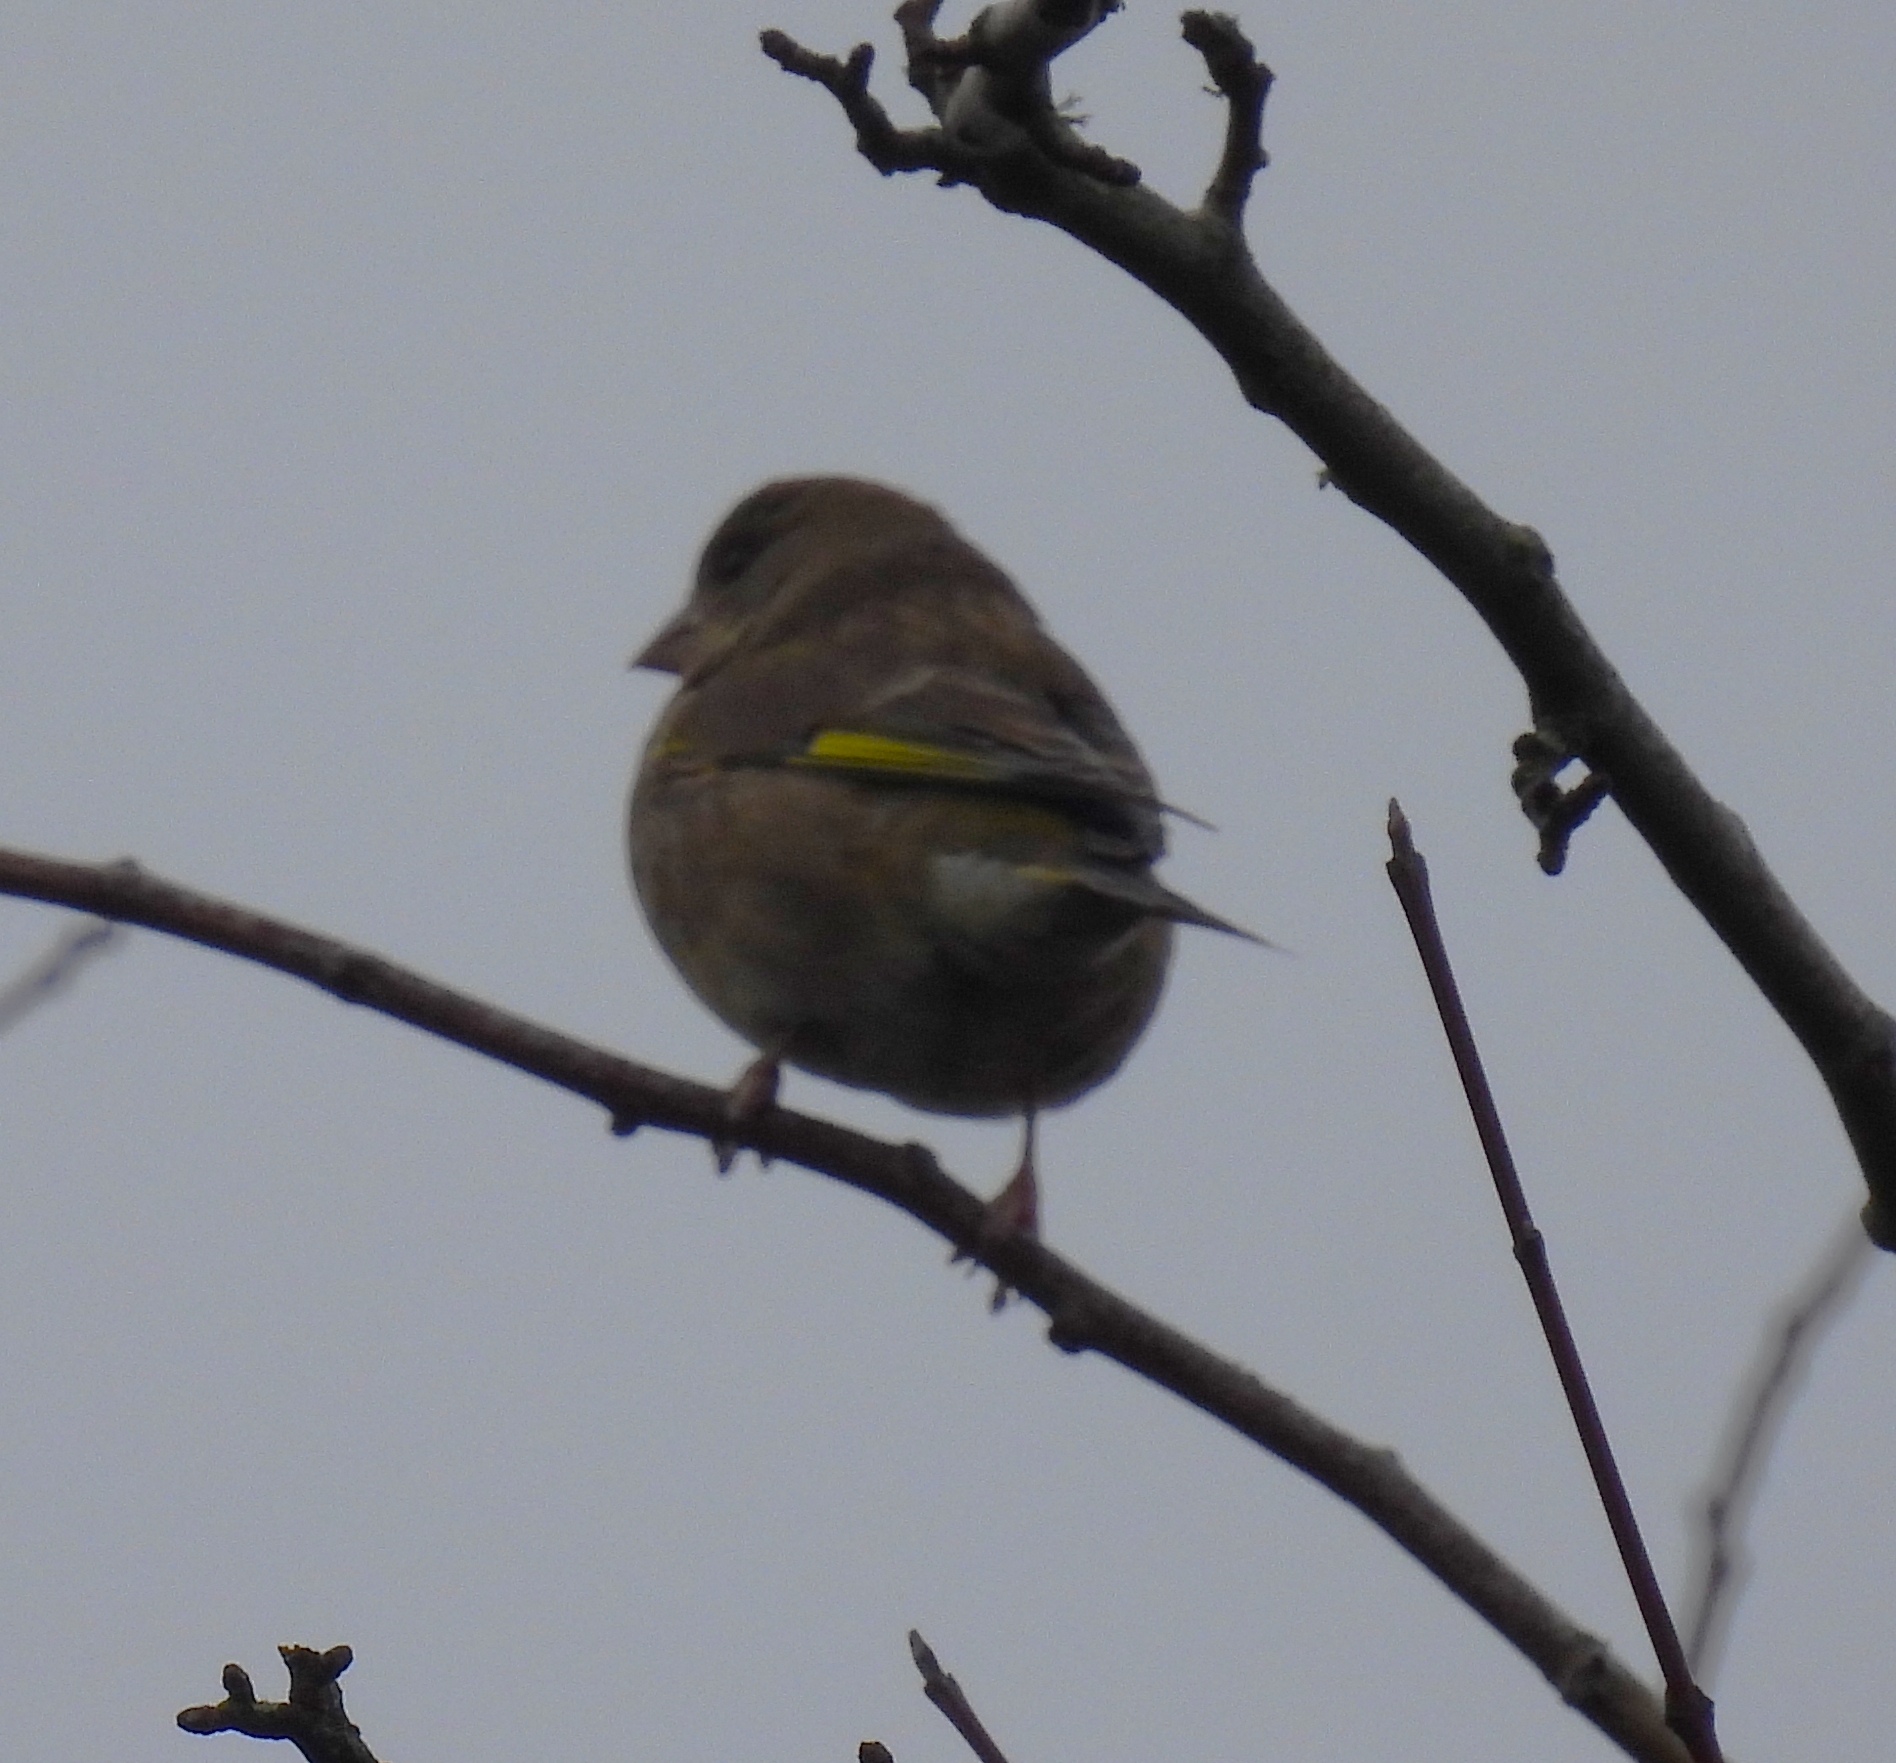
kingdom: Plantae
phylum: Tracheophyta
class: Liliopsida
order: Poales
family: Poaceae
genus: Chloris
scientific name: Chloris chloris
